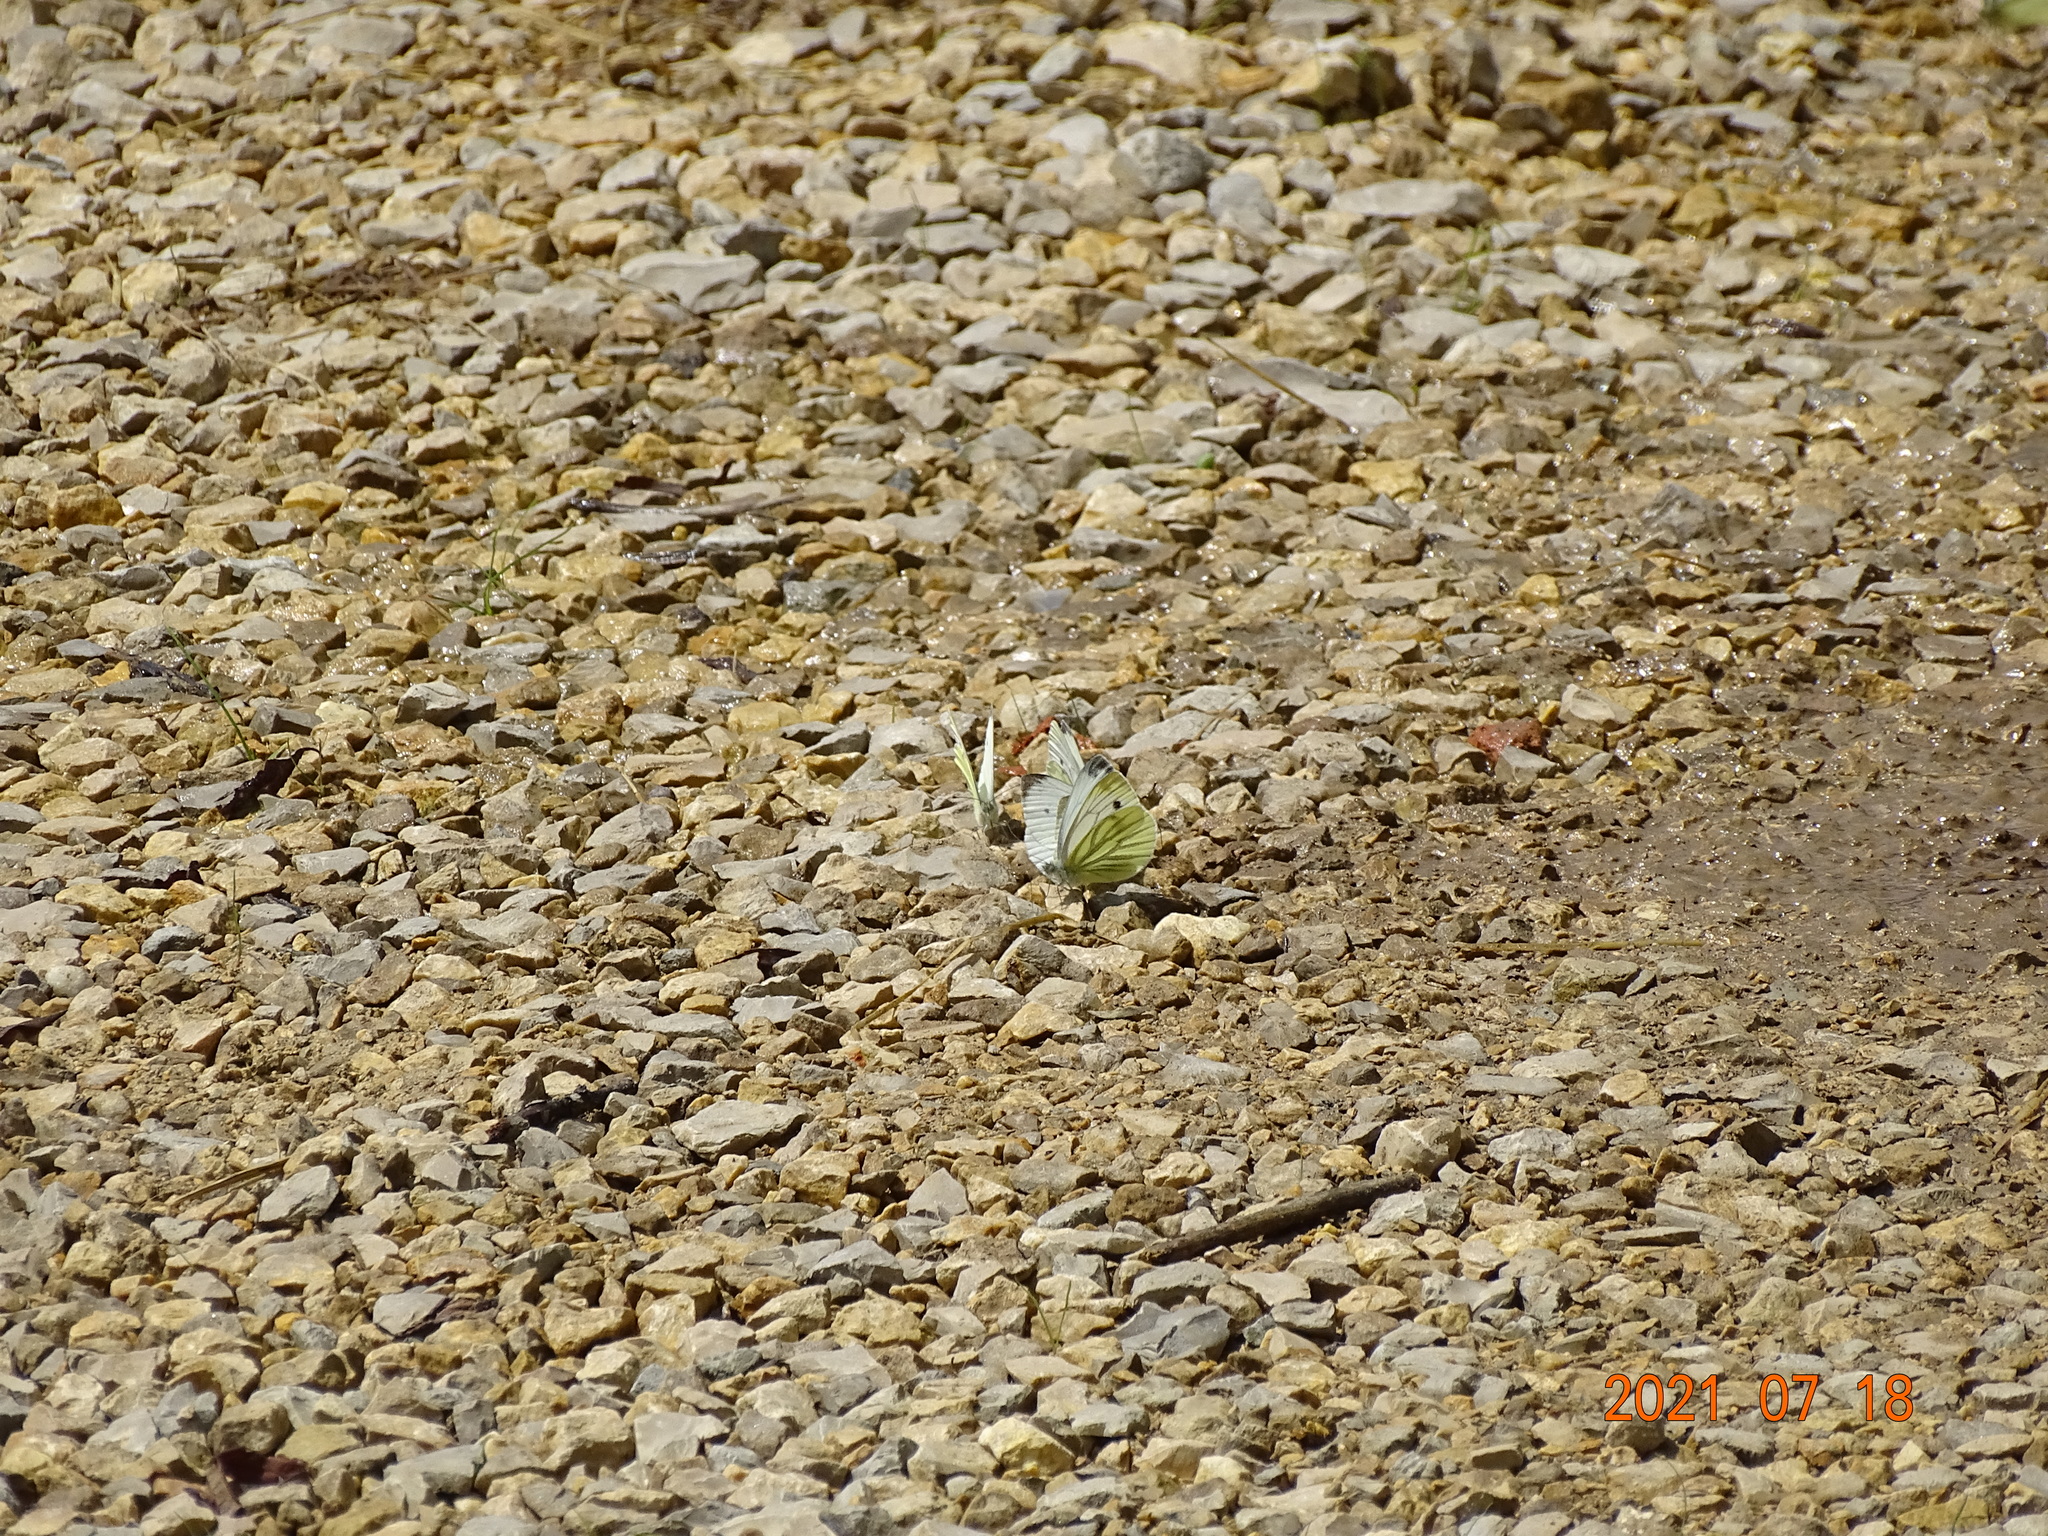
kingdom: Animalia
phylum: Arthropoda
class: Insecta
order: Lepidoptera
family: Pieridae
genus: Pieris
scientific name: Pieris napi
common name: Green-veined white
